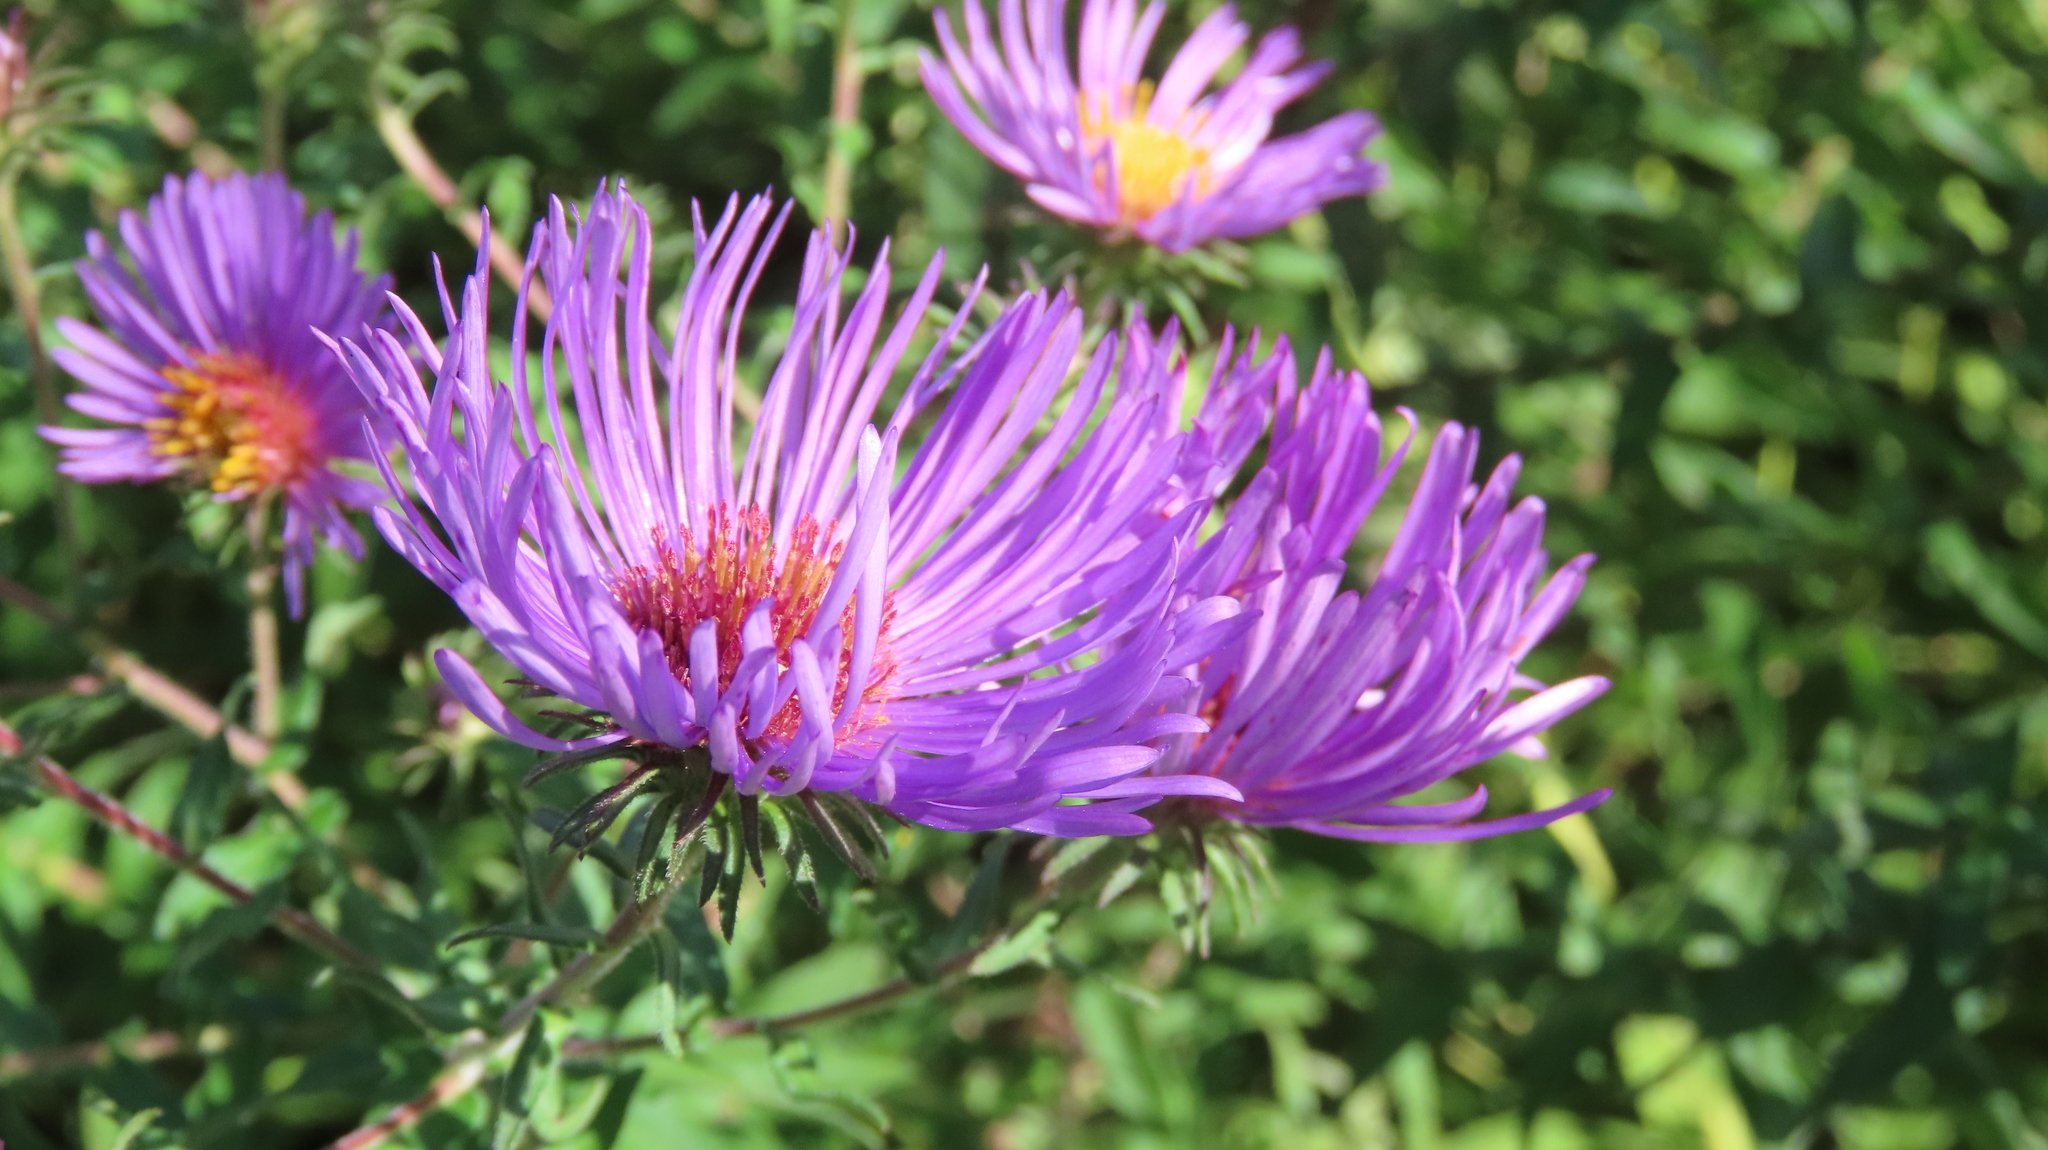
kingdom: Plantae
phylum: Tracheophyta
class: Magnoliopsida
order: Asterales
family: Asteraceae
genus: Symphyotrichum
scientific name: Symphyotrichum novae-angliae
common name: Michaelmas daisy
